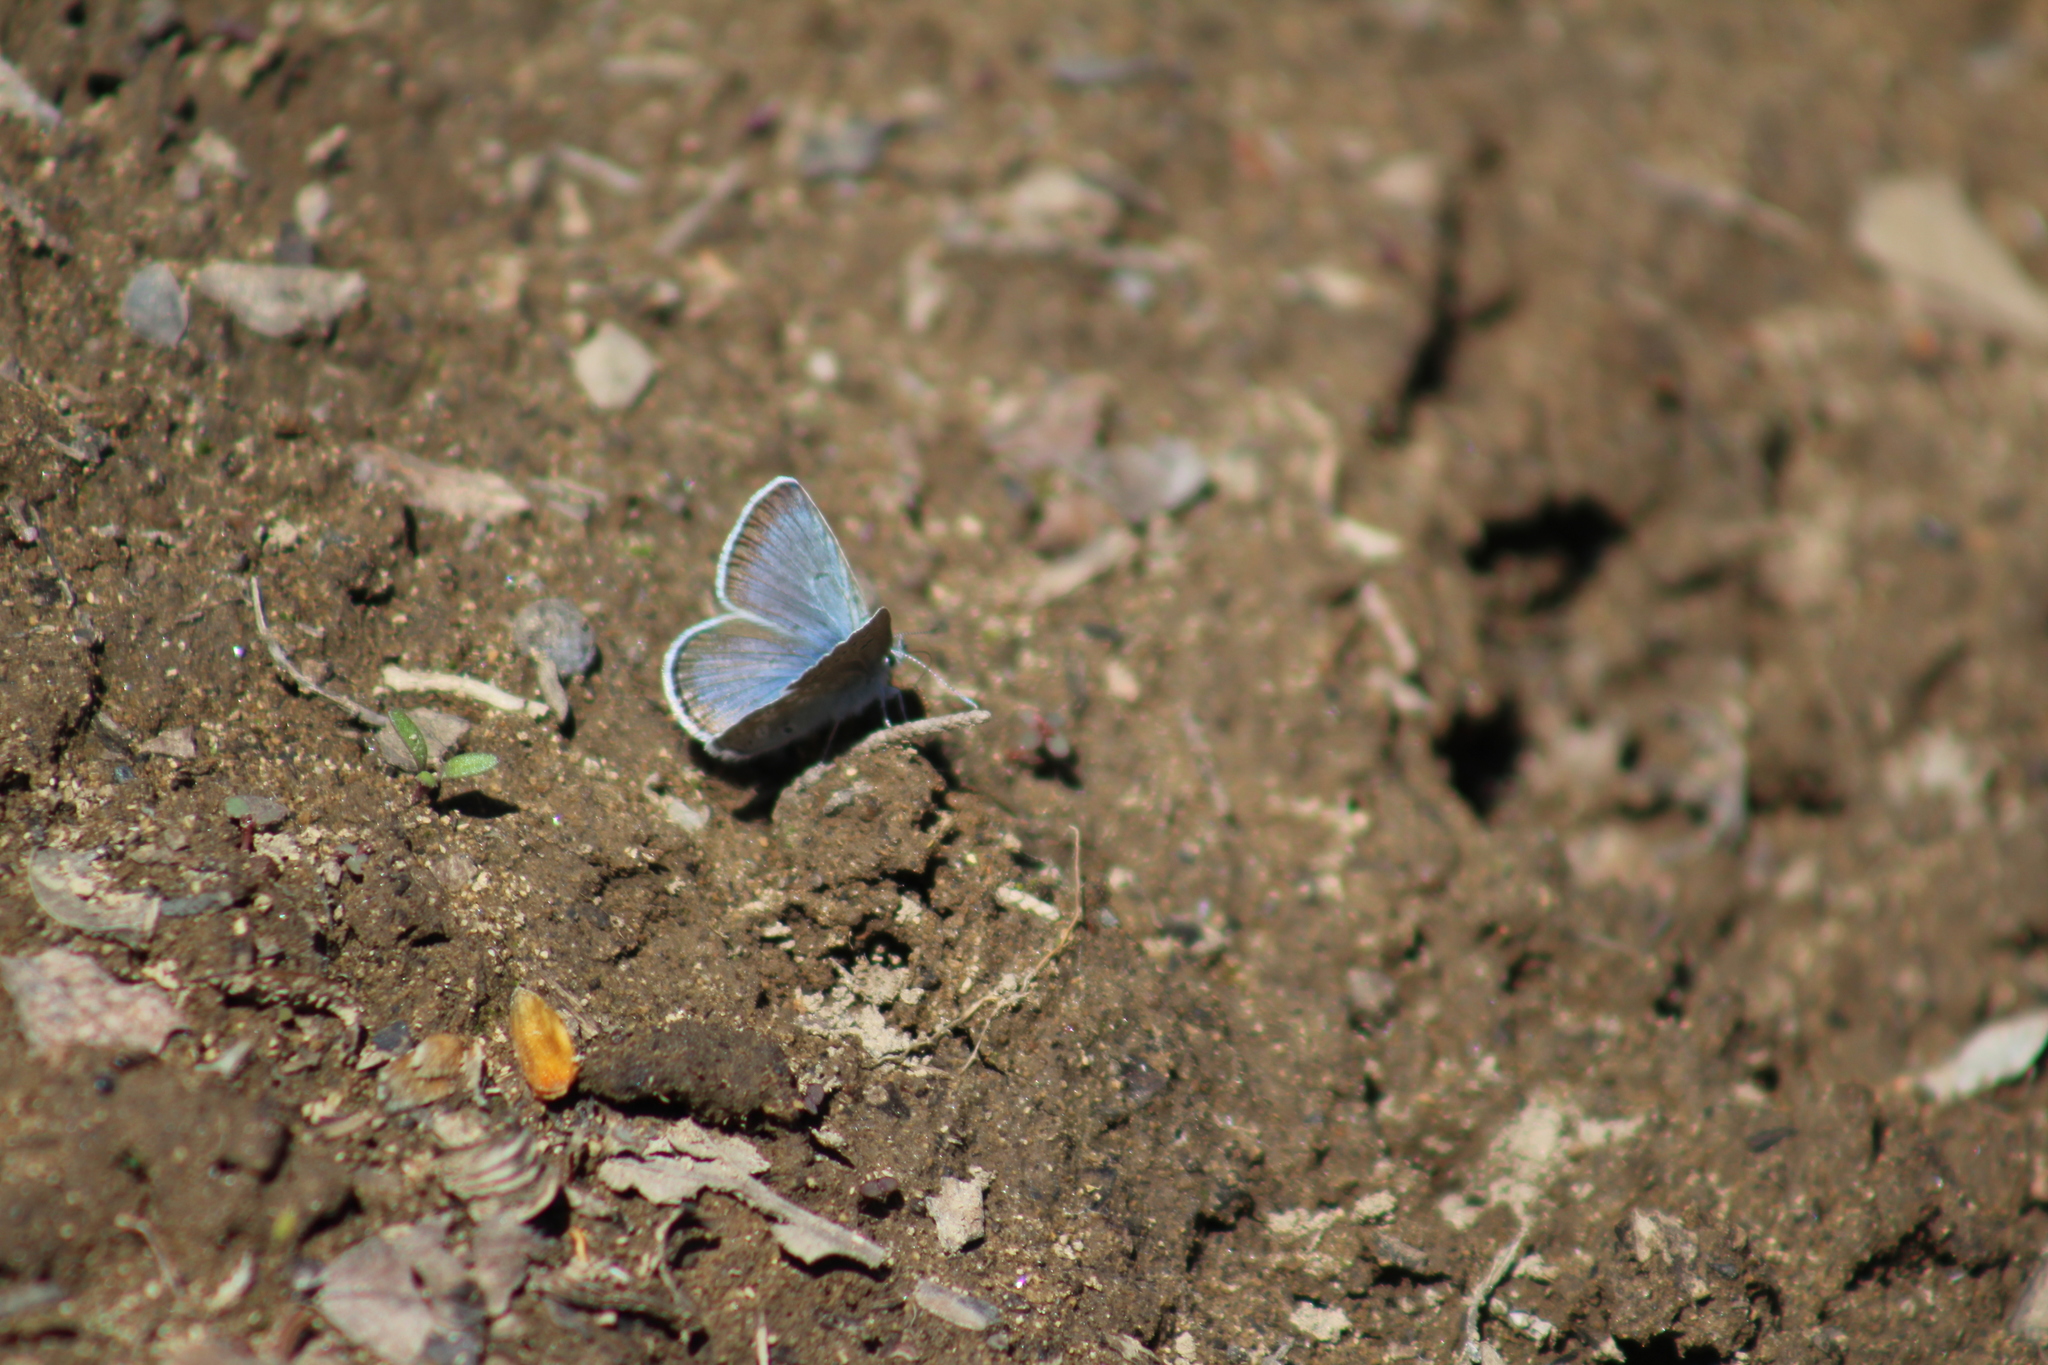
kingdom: Animalia
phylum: Arthropoda
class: Insecta
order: Lepidoptera
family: Lycaenidae
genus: Icaricia
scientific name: Icaricia icarioides
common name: Boisduval's blue
